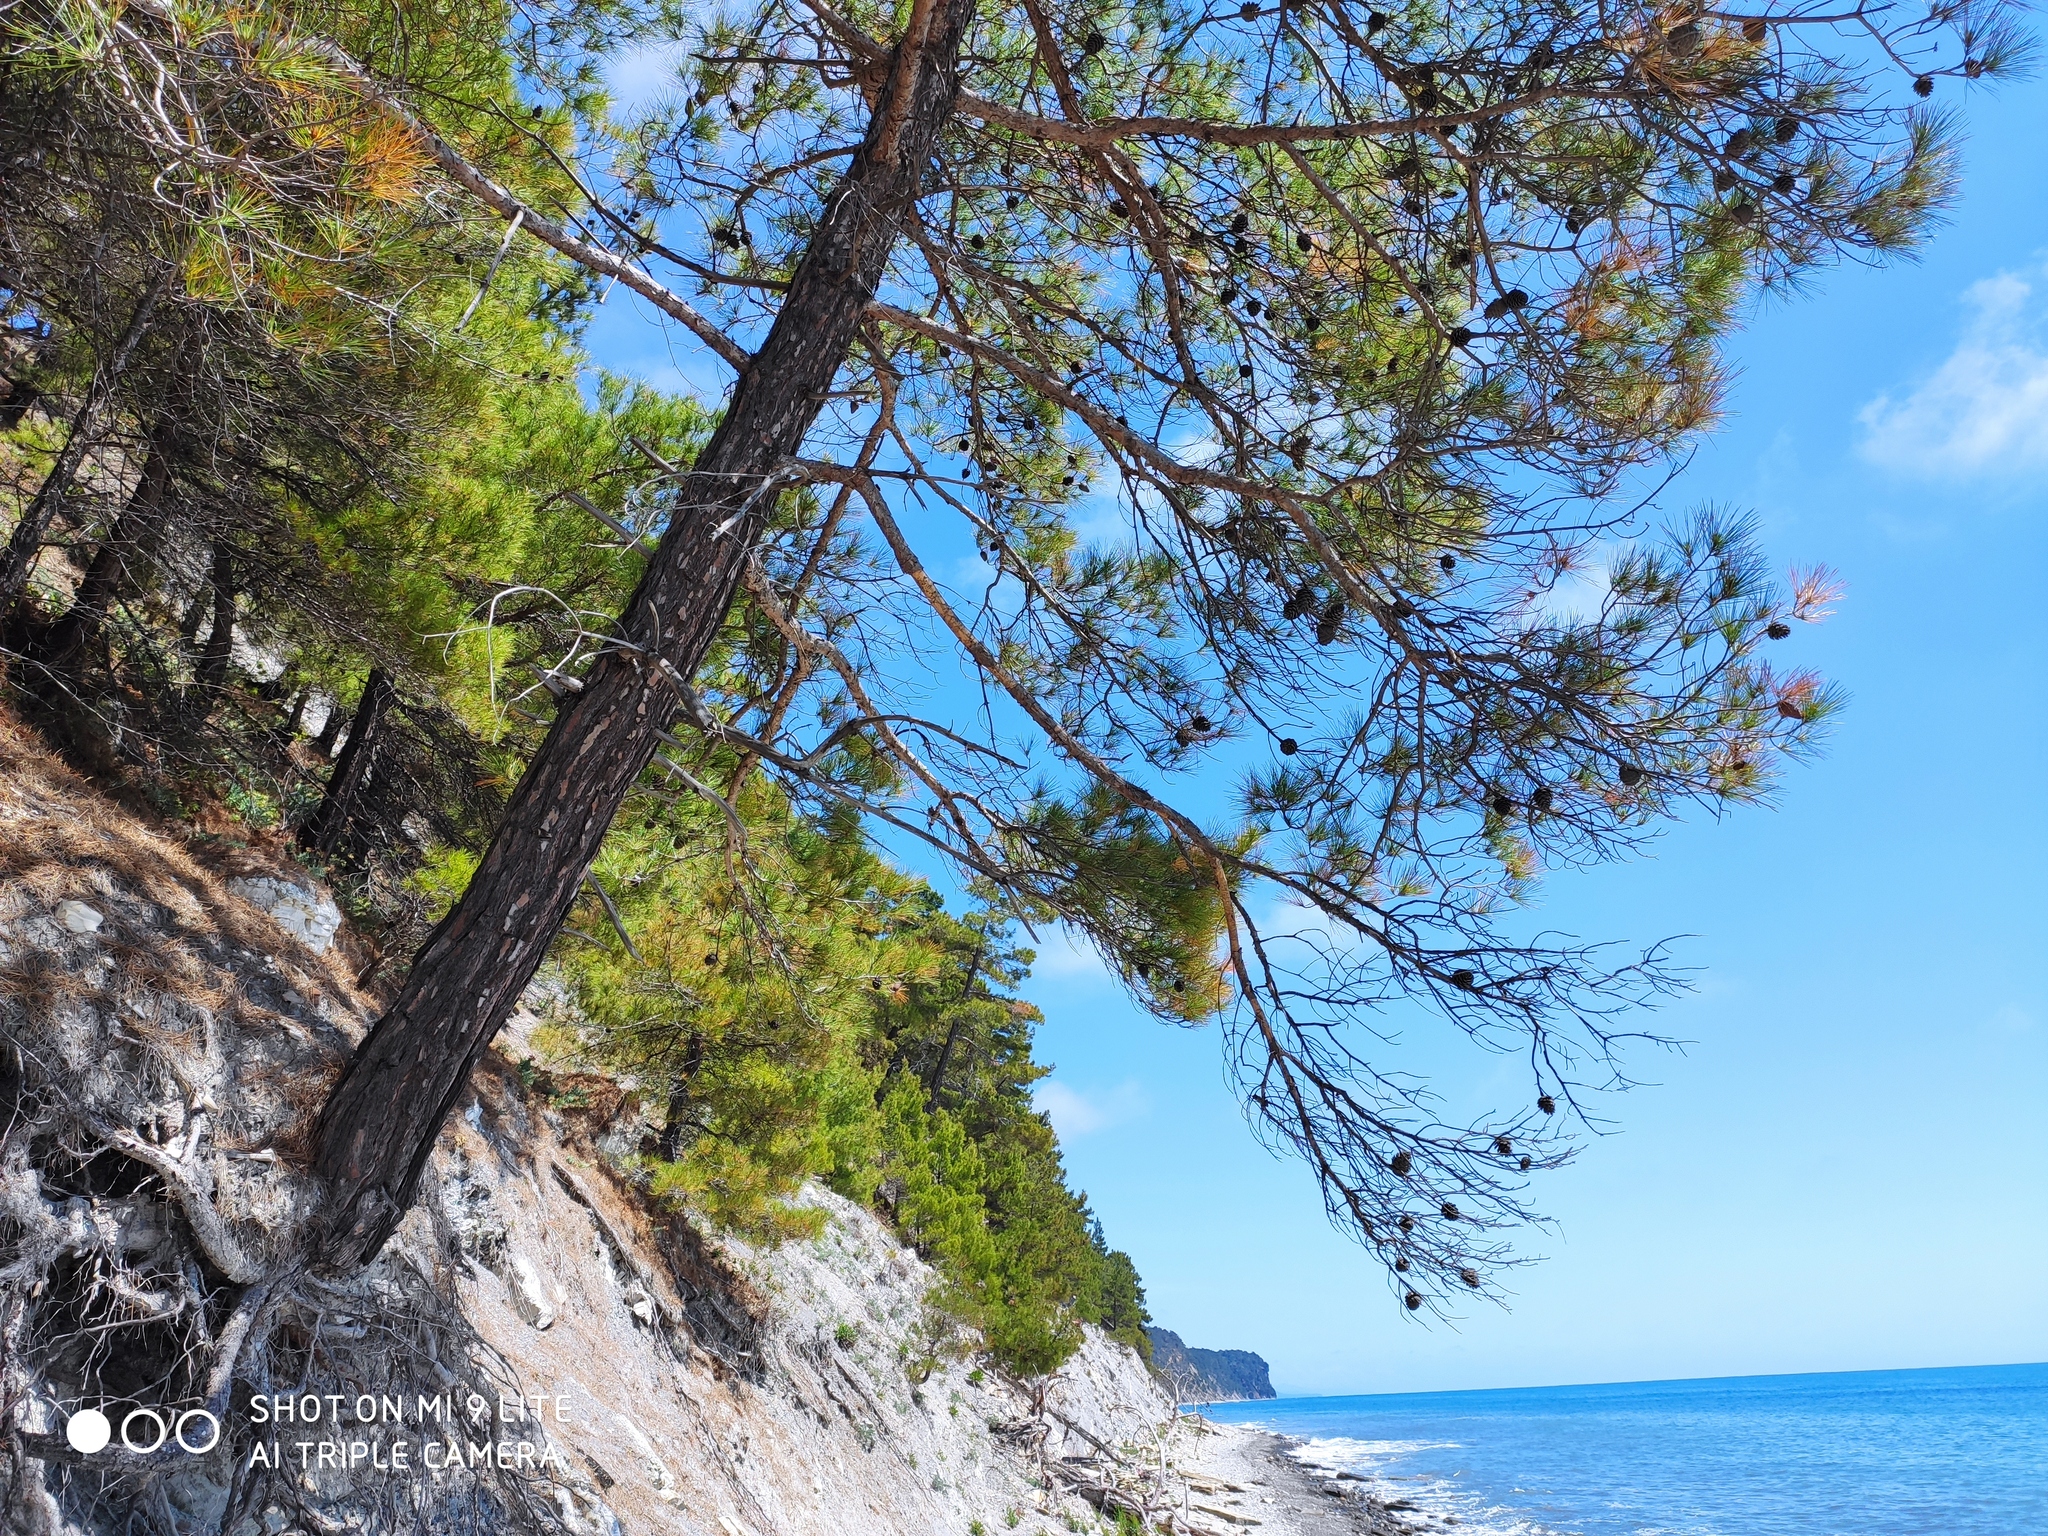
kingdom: Plantae
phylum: Tracheophyta
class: Pinopsida
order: Pinales
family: Pinaceae
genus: Pinus
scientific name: Pinus brutia
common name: Turkish pine
